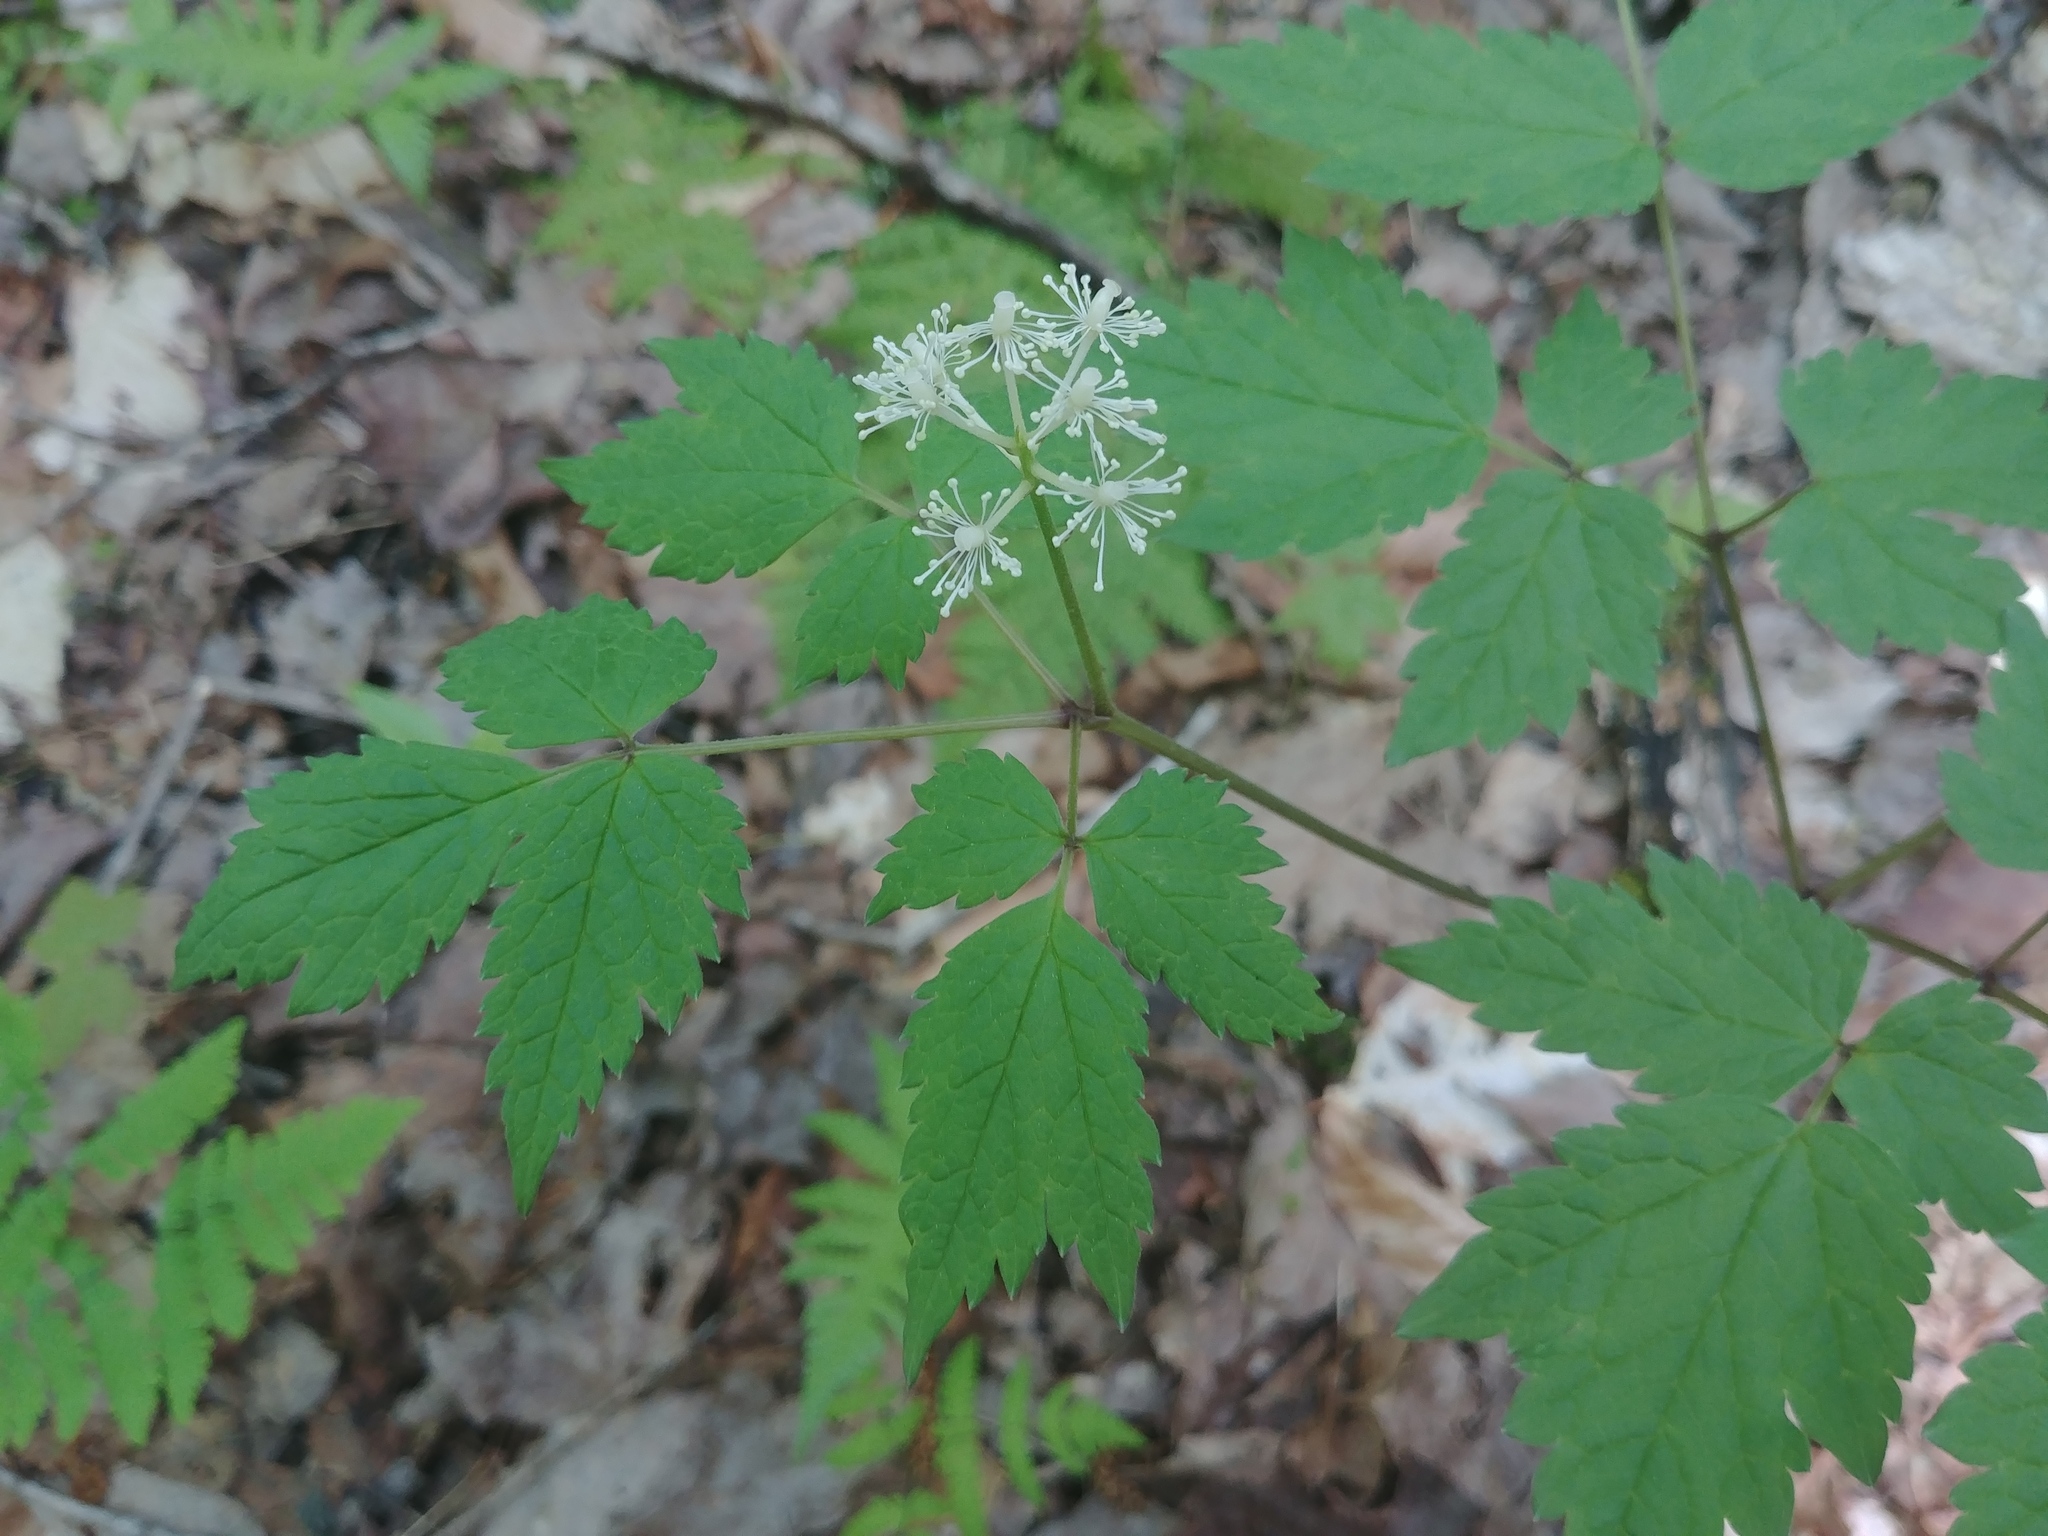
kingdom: Plantae
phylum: Tracheophyta
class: Magnoliopsida
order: Ranunculales
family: Ranunculaceae
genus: Actaea
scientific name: Actaea pachypoda
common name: Doll's-eyes
